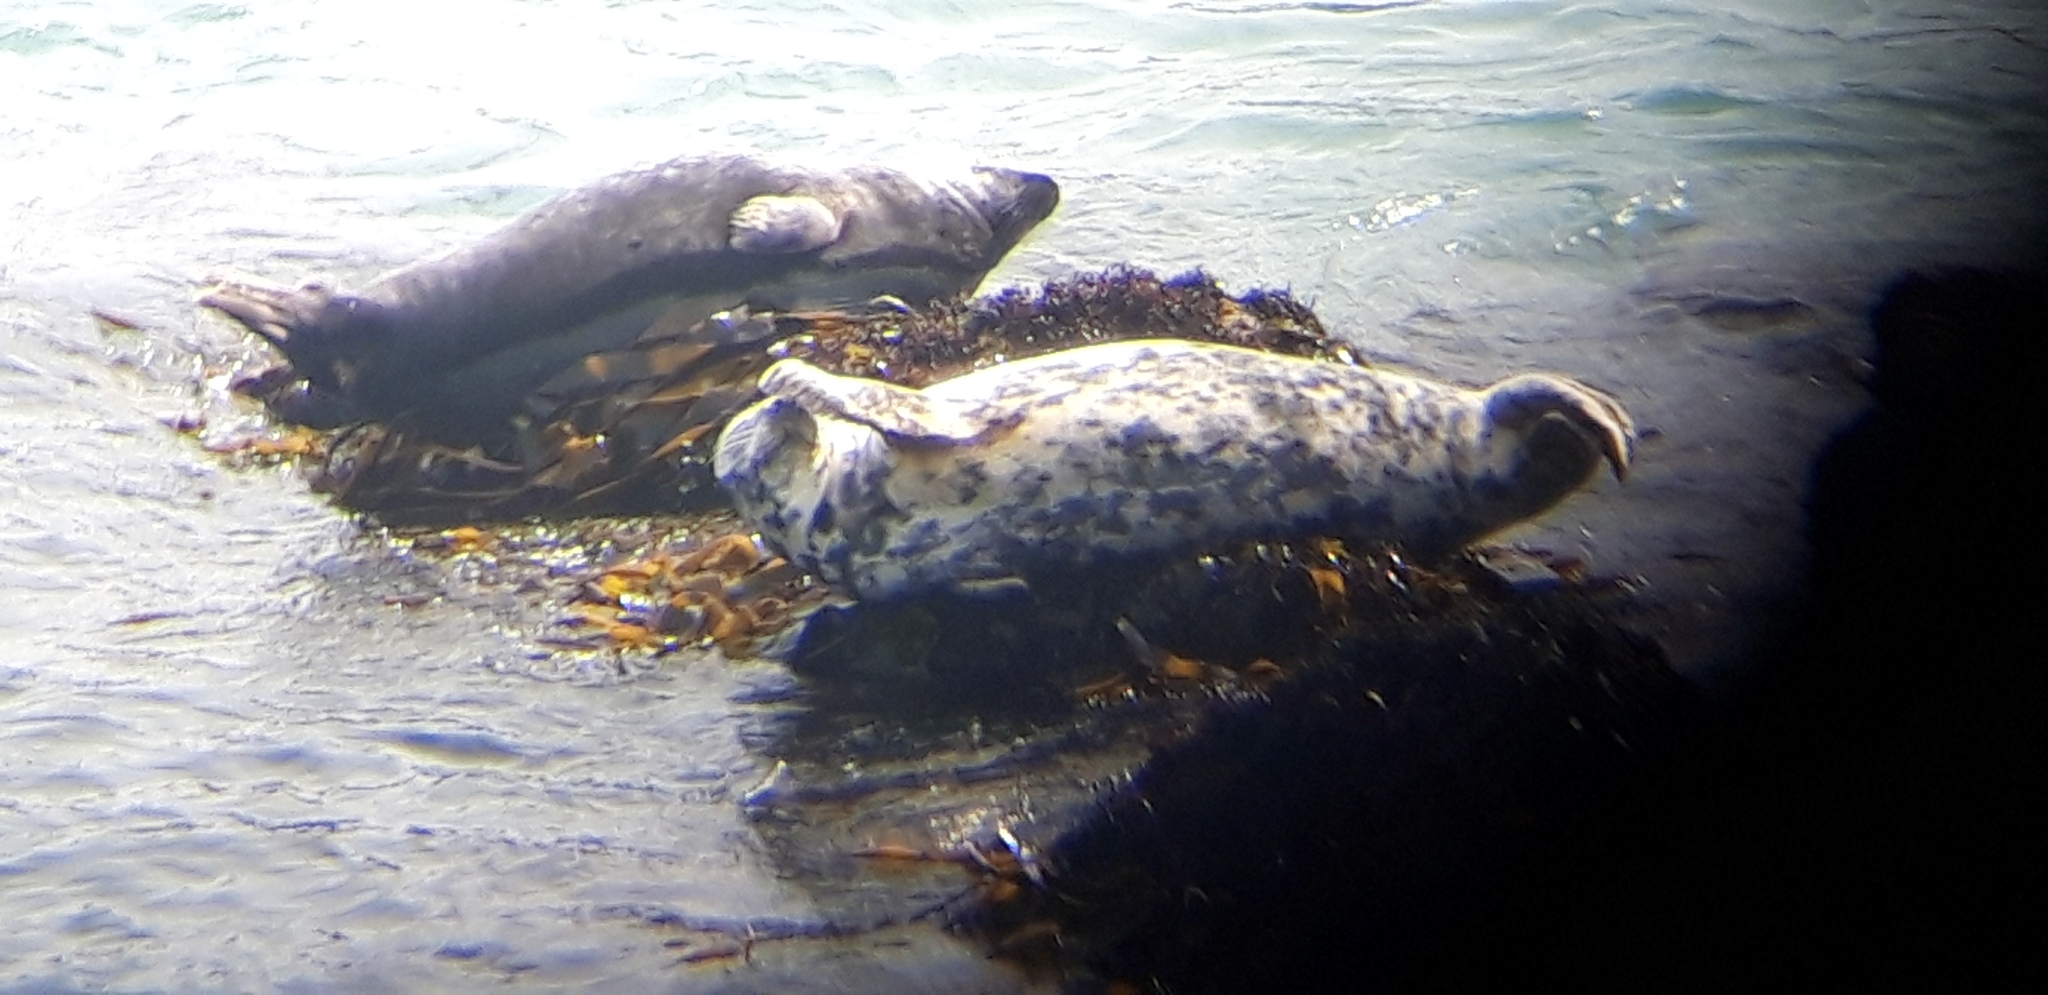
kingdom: Animalia
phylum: Chordata
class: Mammalia
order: Carnivora
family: Phocidae
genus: Halichoerus
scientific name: Halichoerus grypus
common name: Grey seal
